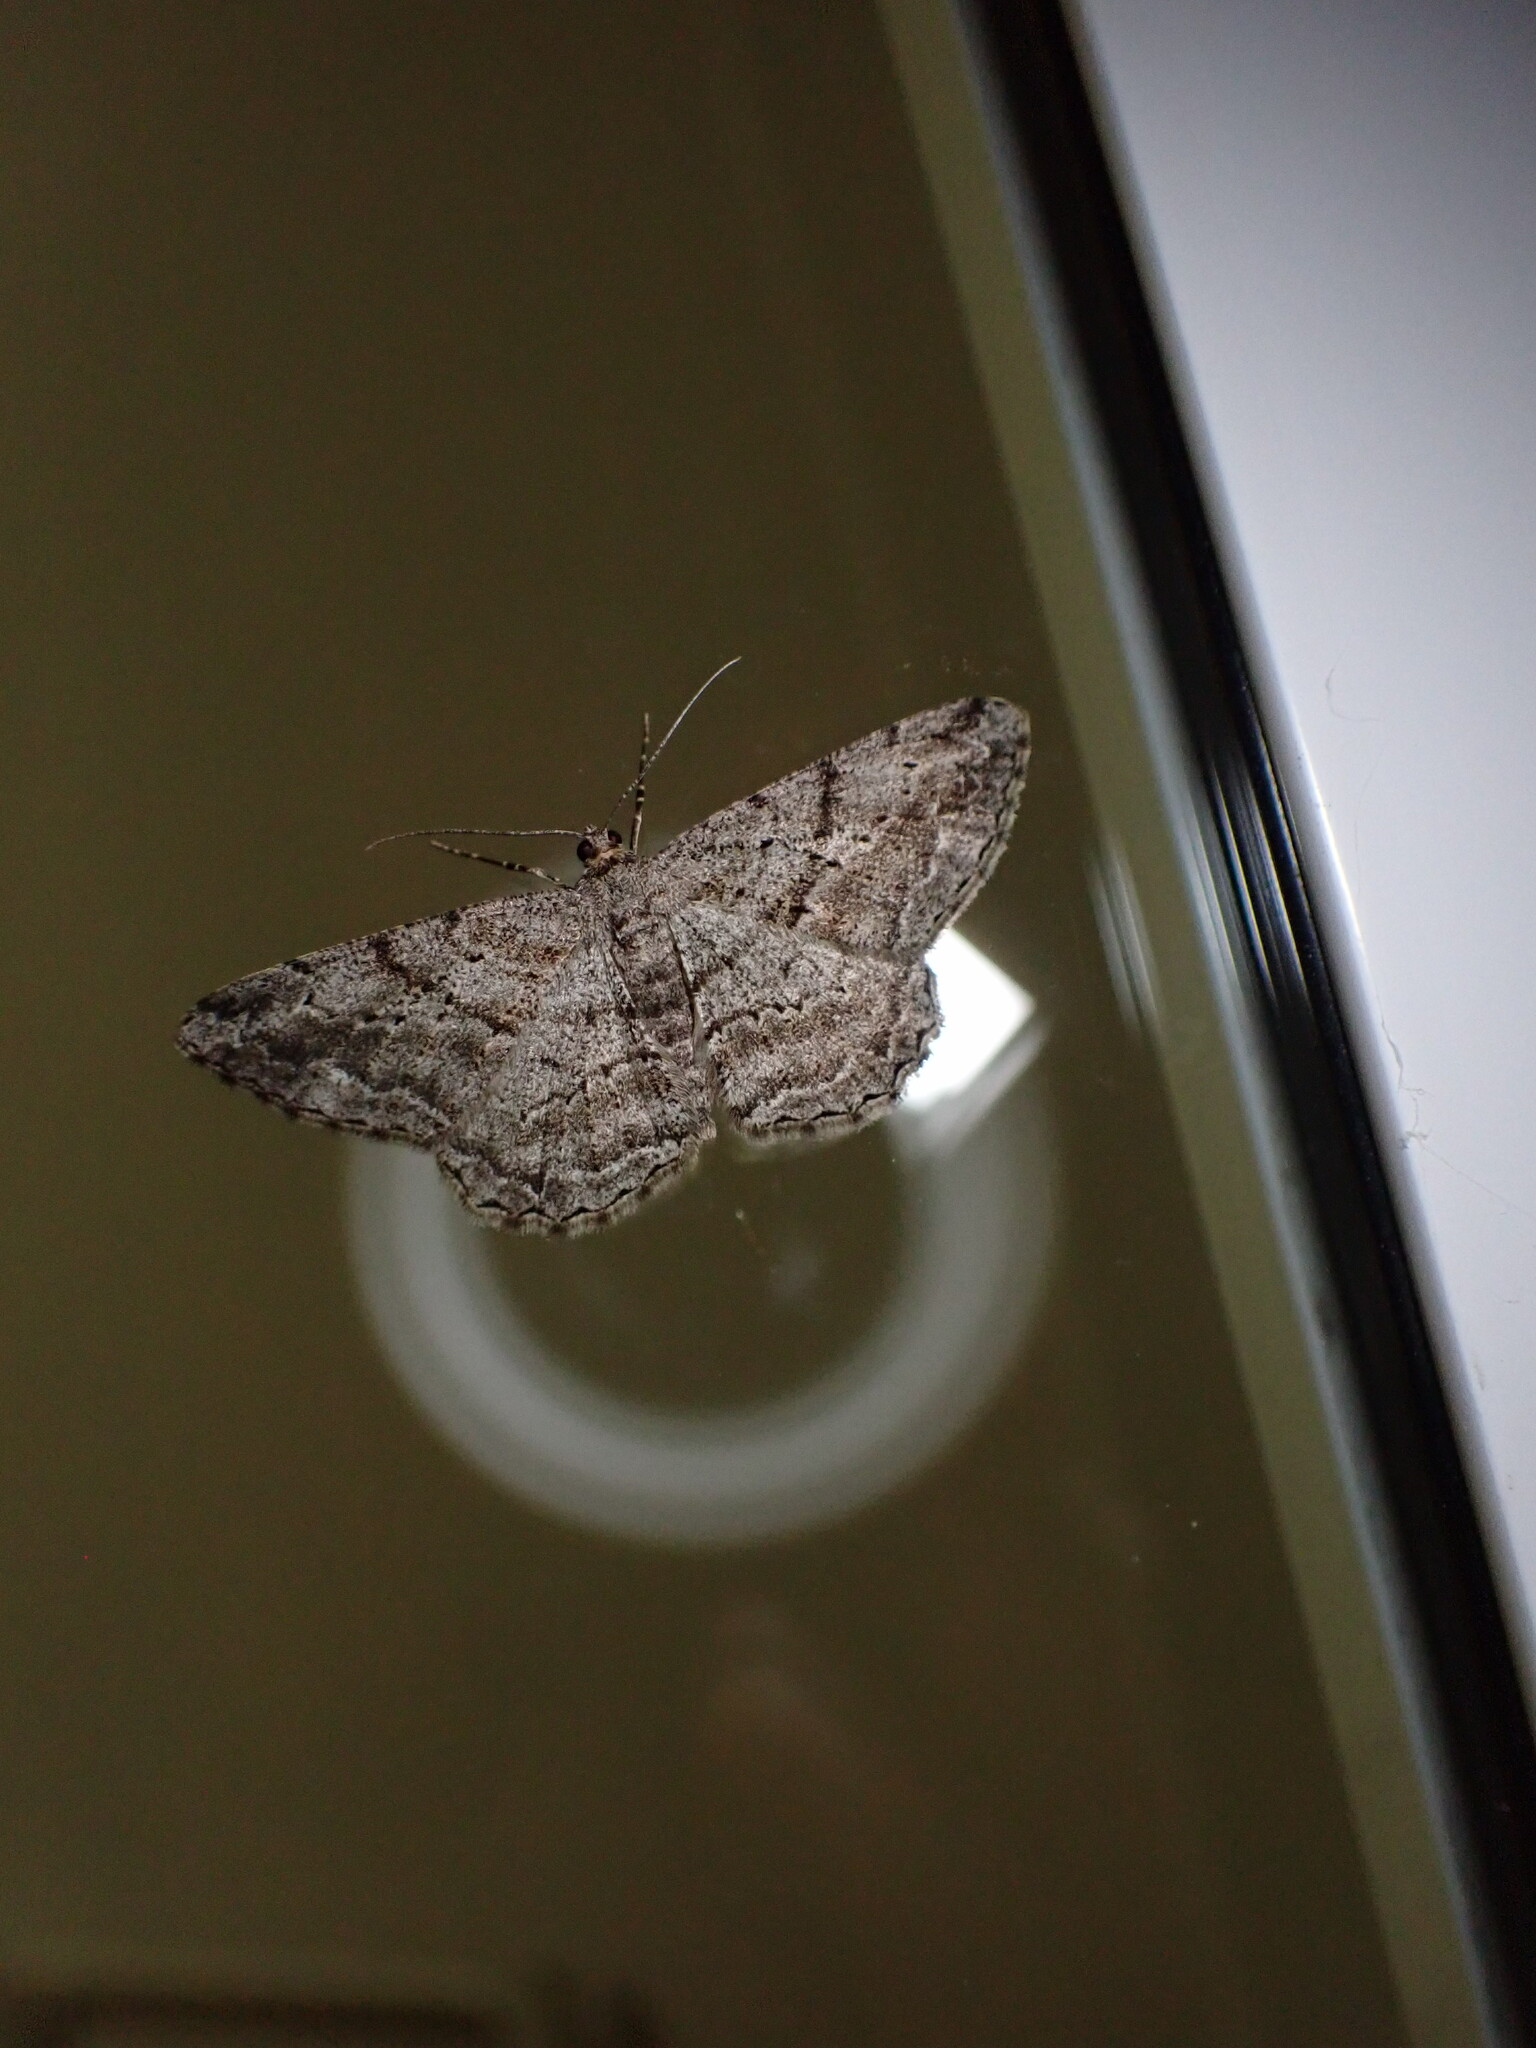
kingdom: Animalia
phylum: Arthropoda
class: Insecta
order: Lepidoptera
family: Geometridae
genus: Peribatodes
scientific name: Peribatodes rhomboidaria
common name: Willow beauty
